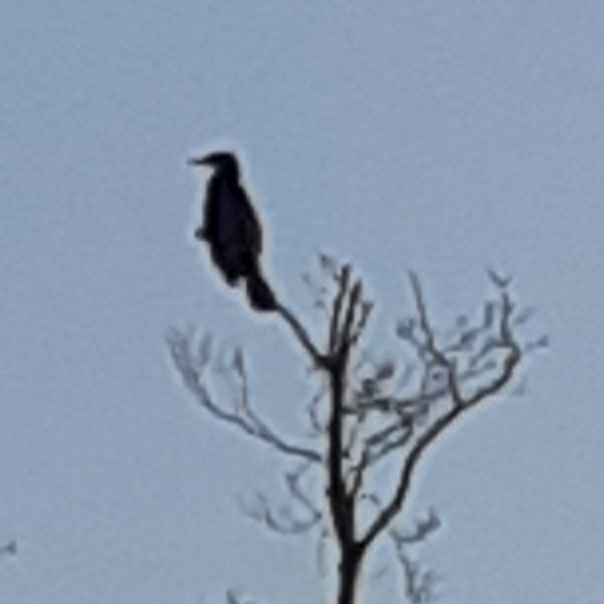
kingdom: Animalia
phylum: Chordata
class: Aves
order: Suliformes
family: Phalacrocoracidae
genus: Phalacrocorax
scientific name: Phalacrocorax carbo
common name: Great cormorant
